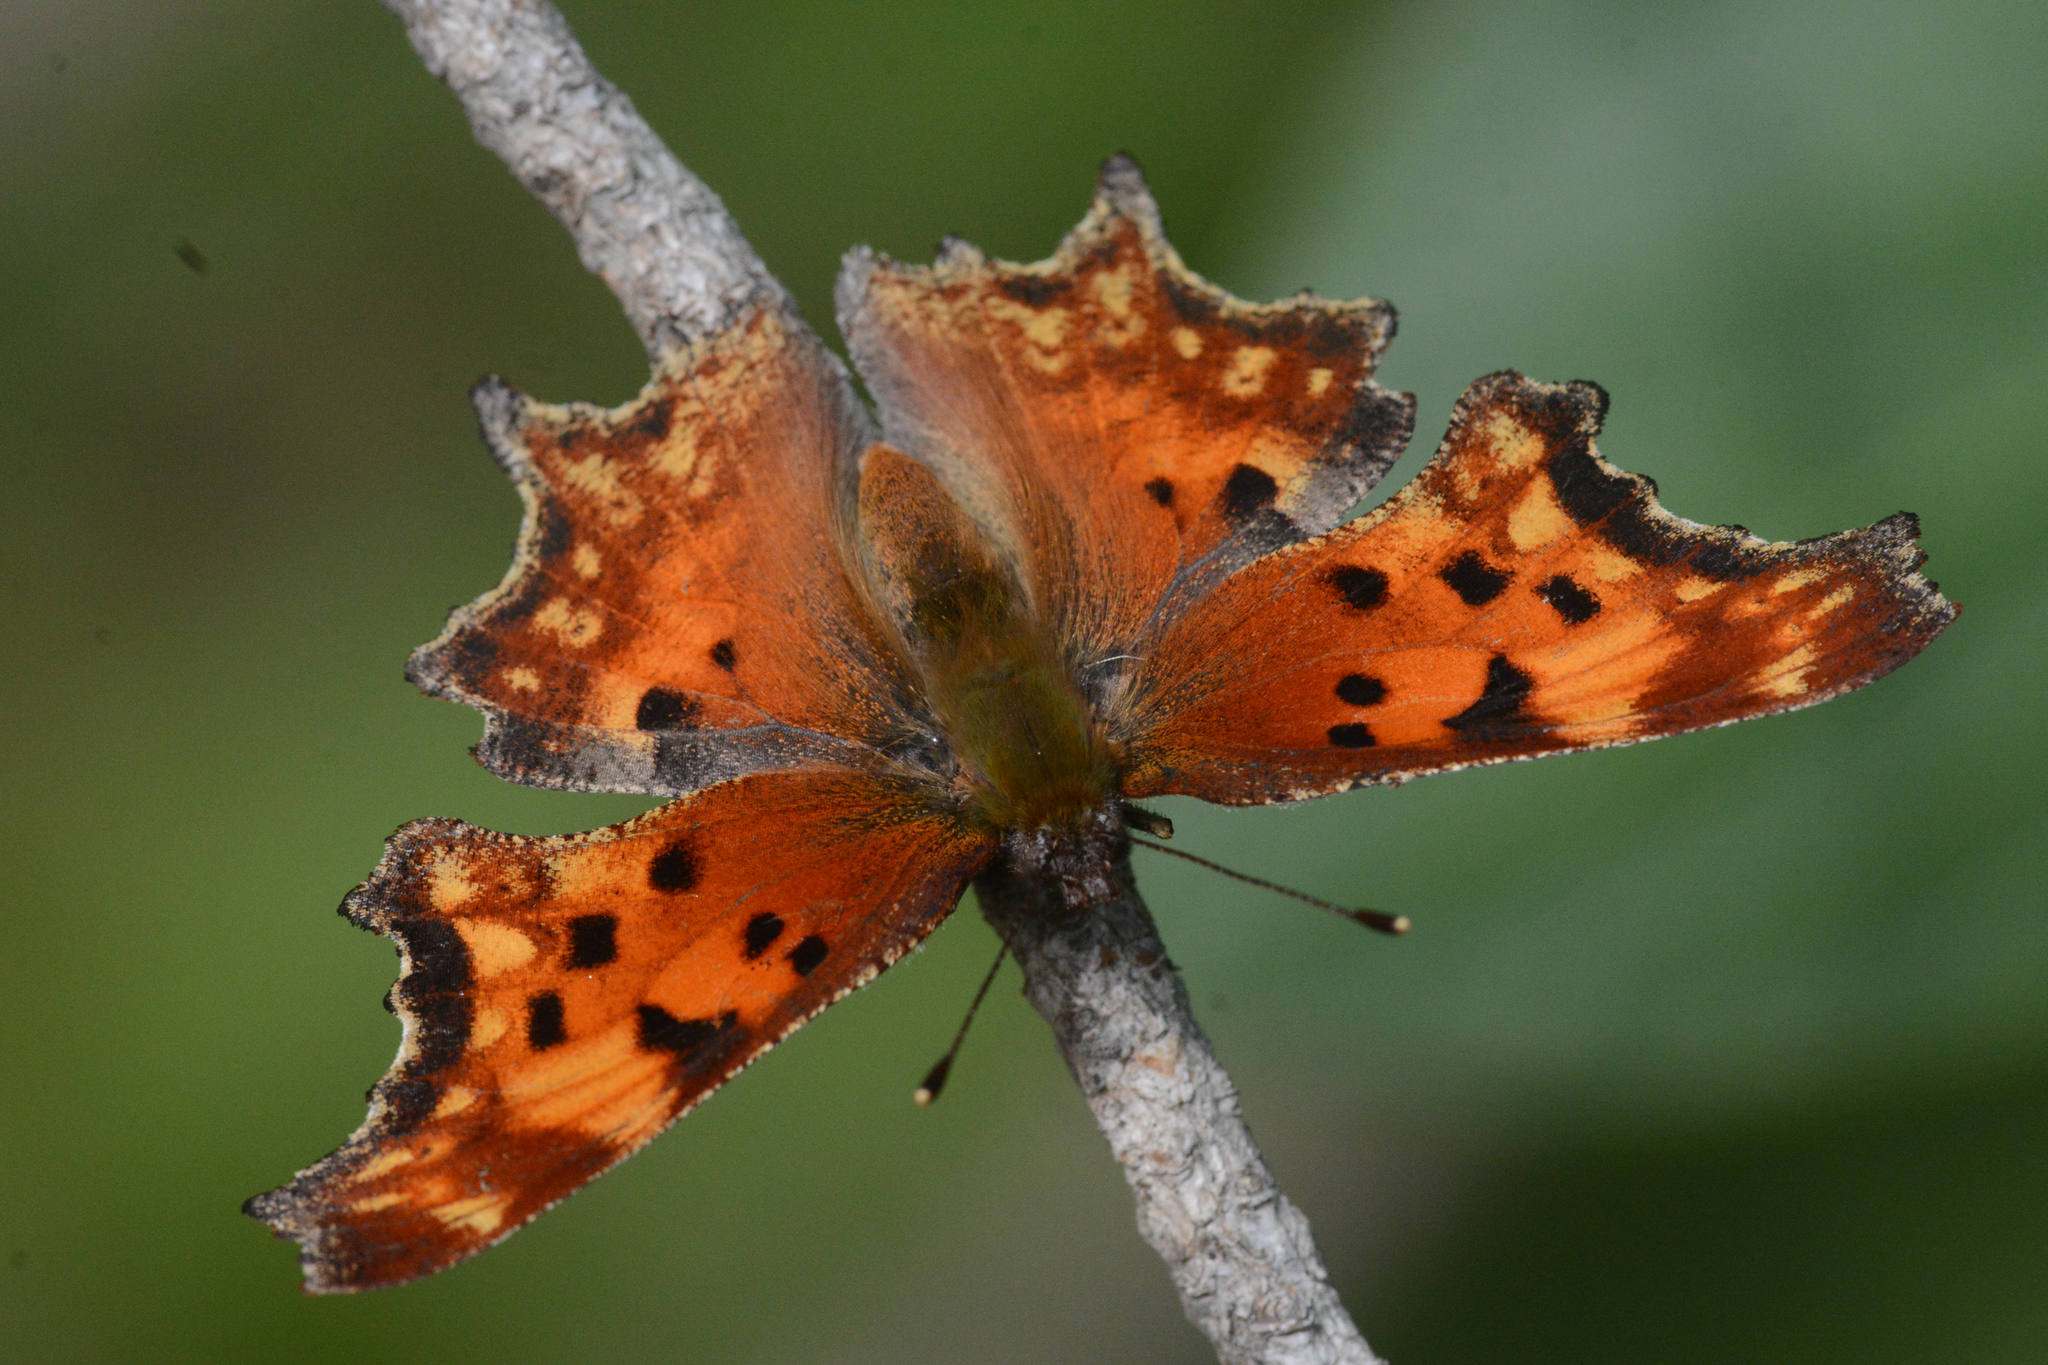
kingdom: Animalia
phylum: Arthropoda
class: Insecta
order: Lepidoptera
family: Nymphalidae
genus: Polygonia
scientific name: Polygonia gracilis
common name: Hoary comma
